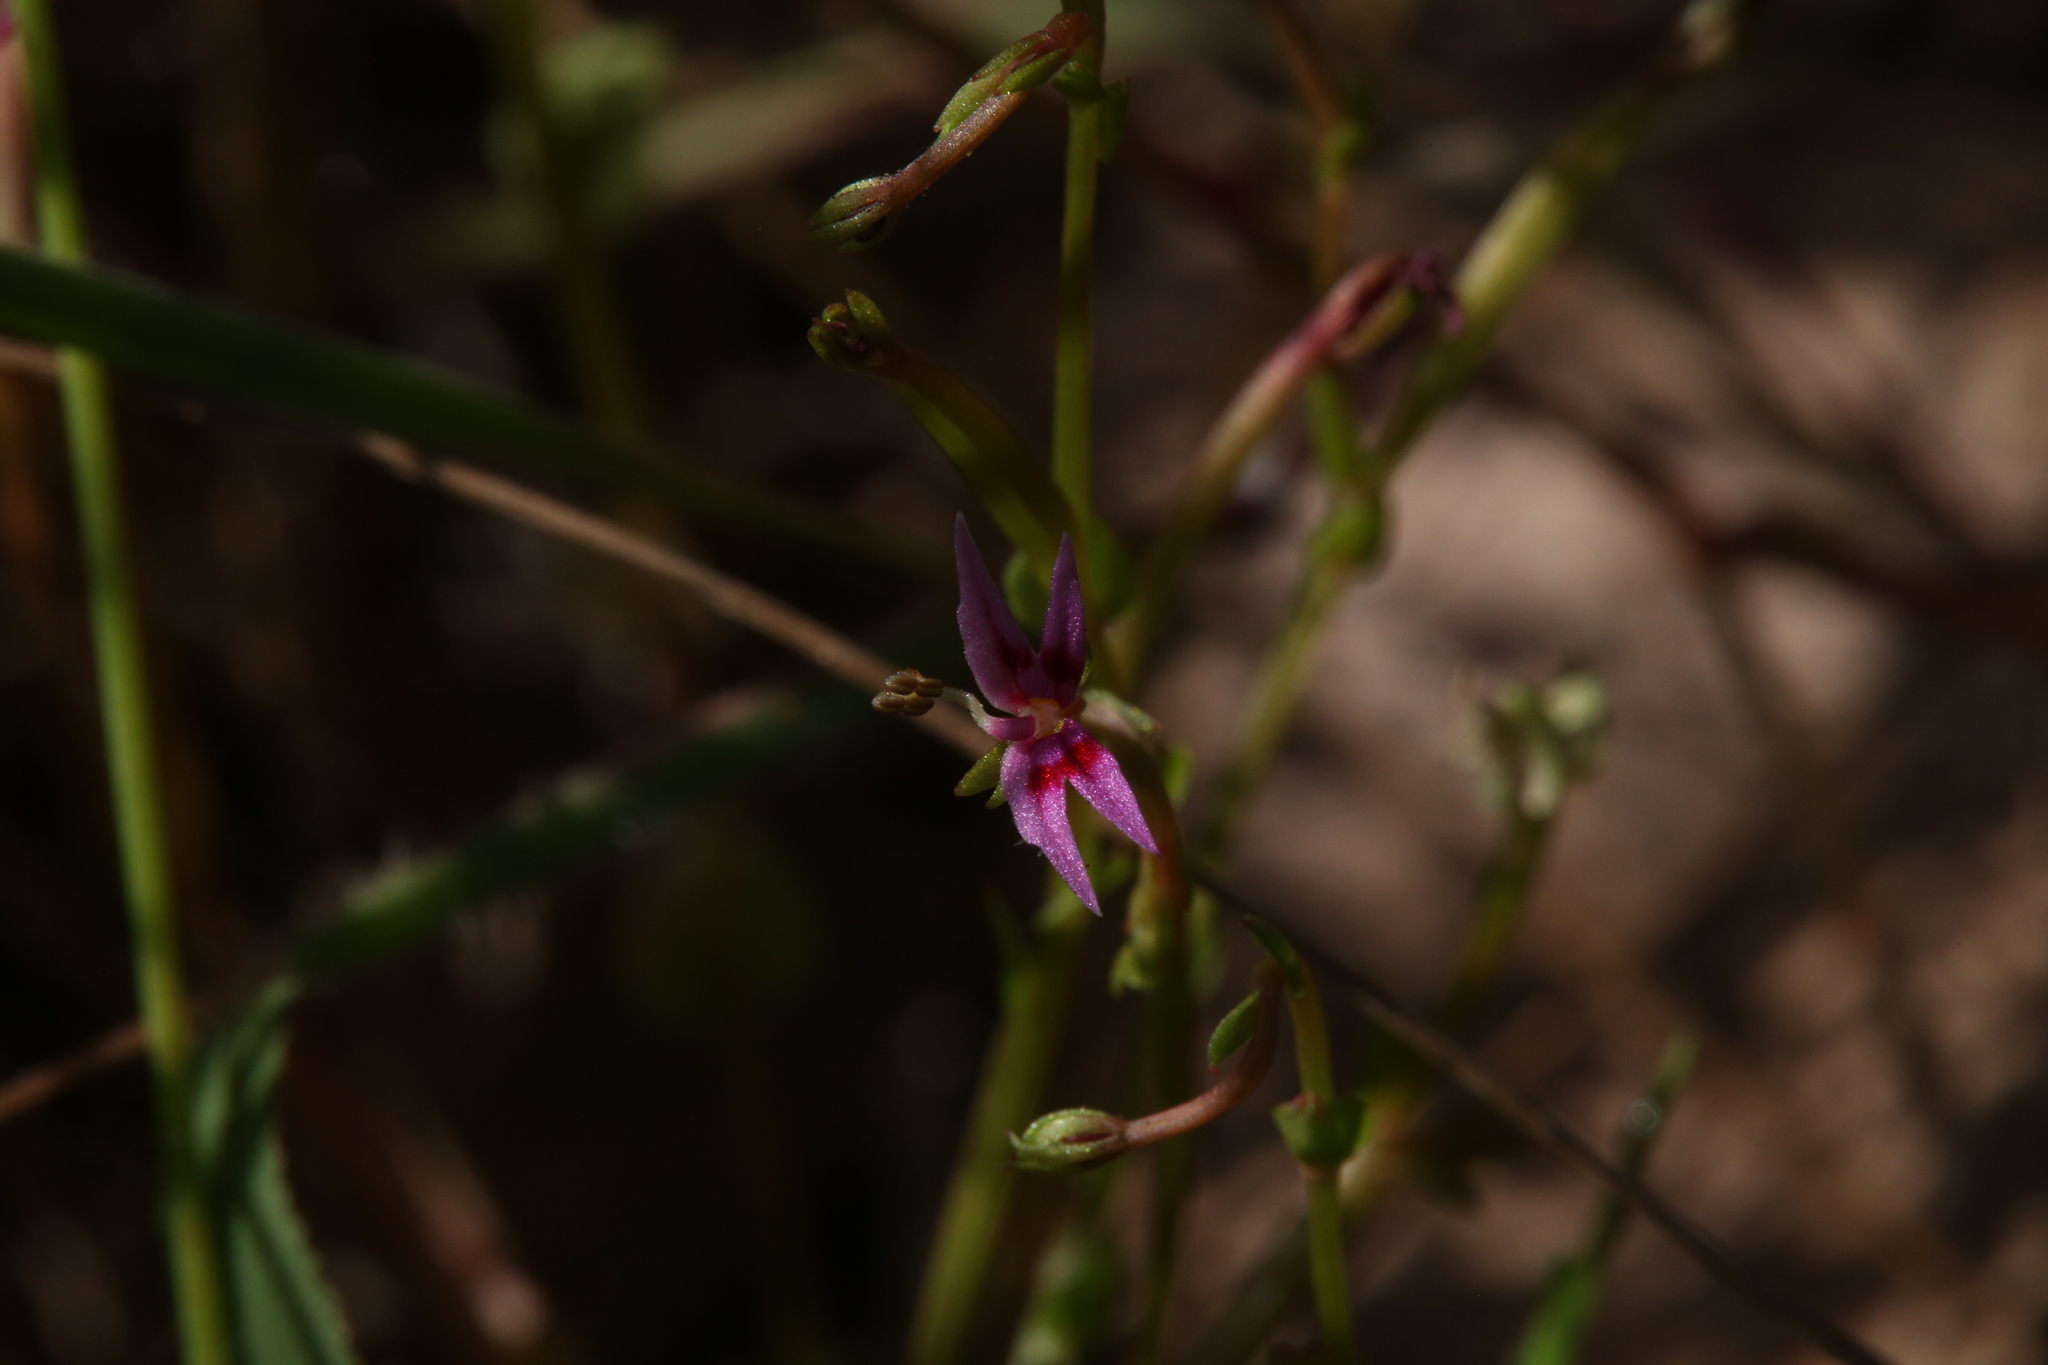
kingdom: Plantae
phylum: Tracheophyta
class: Magnoliopsida
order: Asterales
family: Stylidiaceae
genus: Stylidium
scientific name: Stylidium cordifolium
